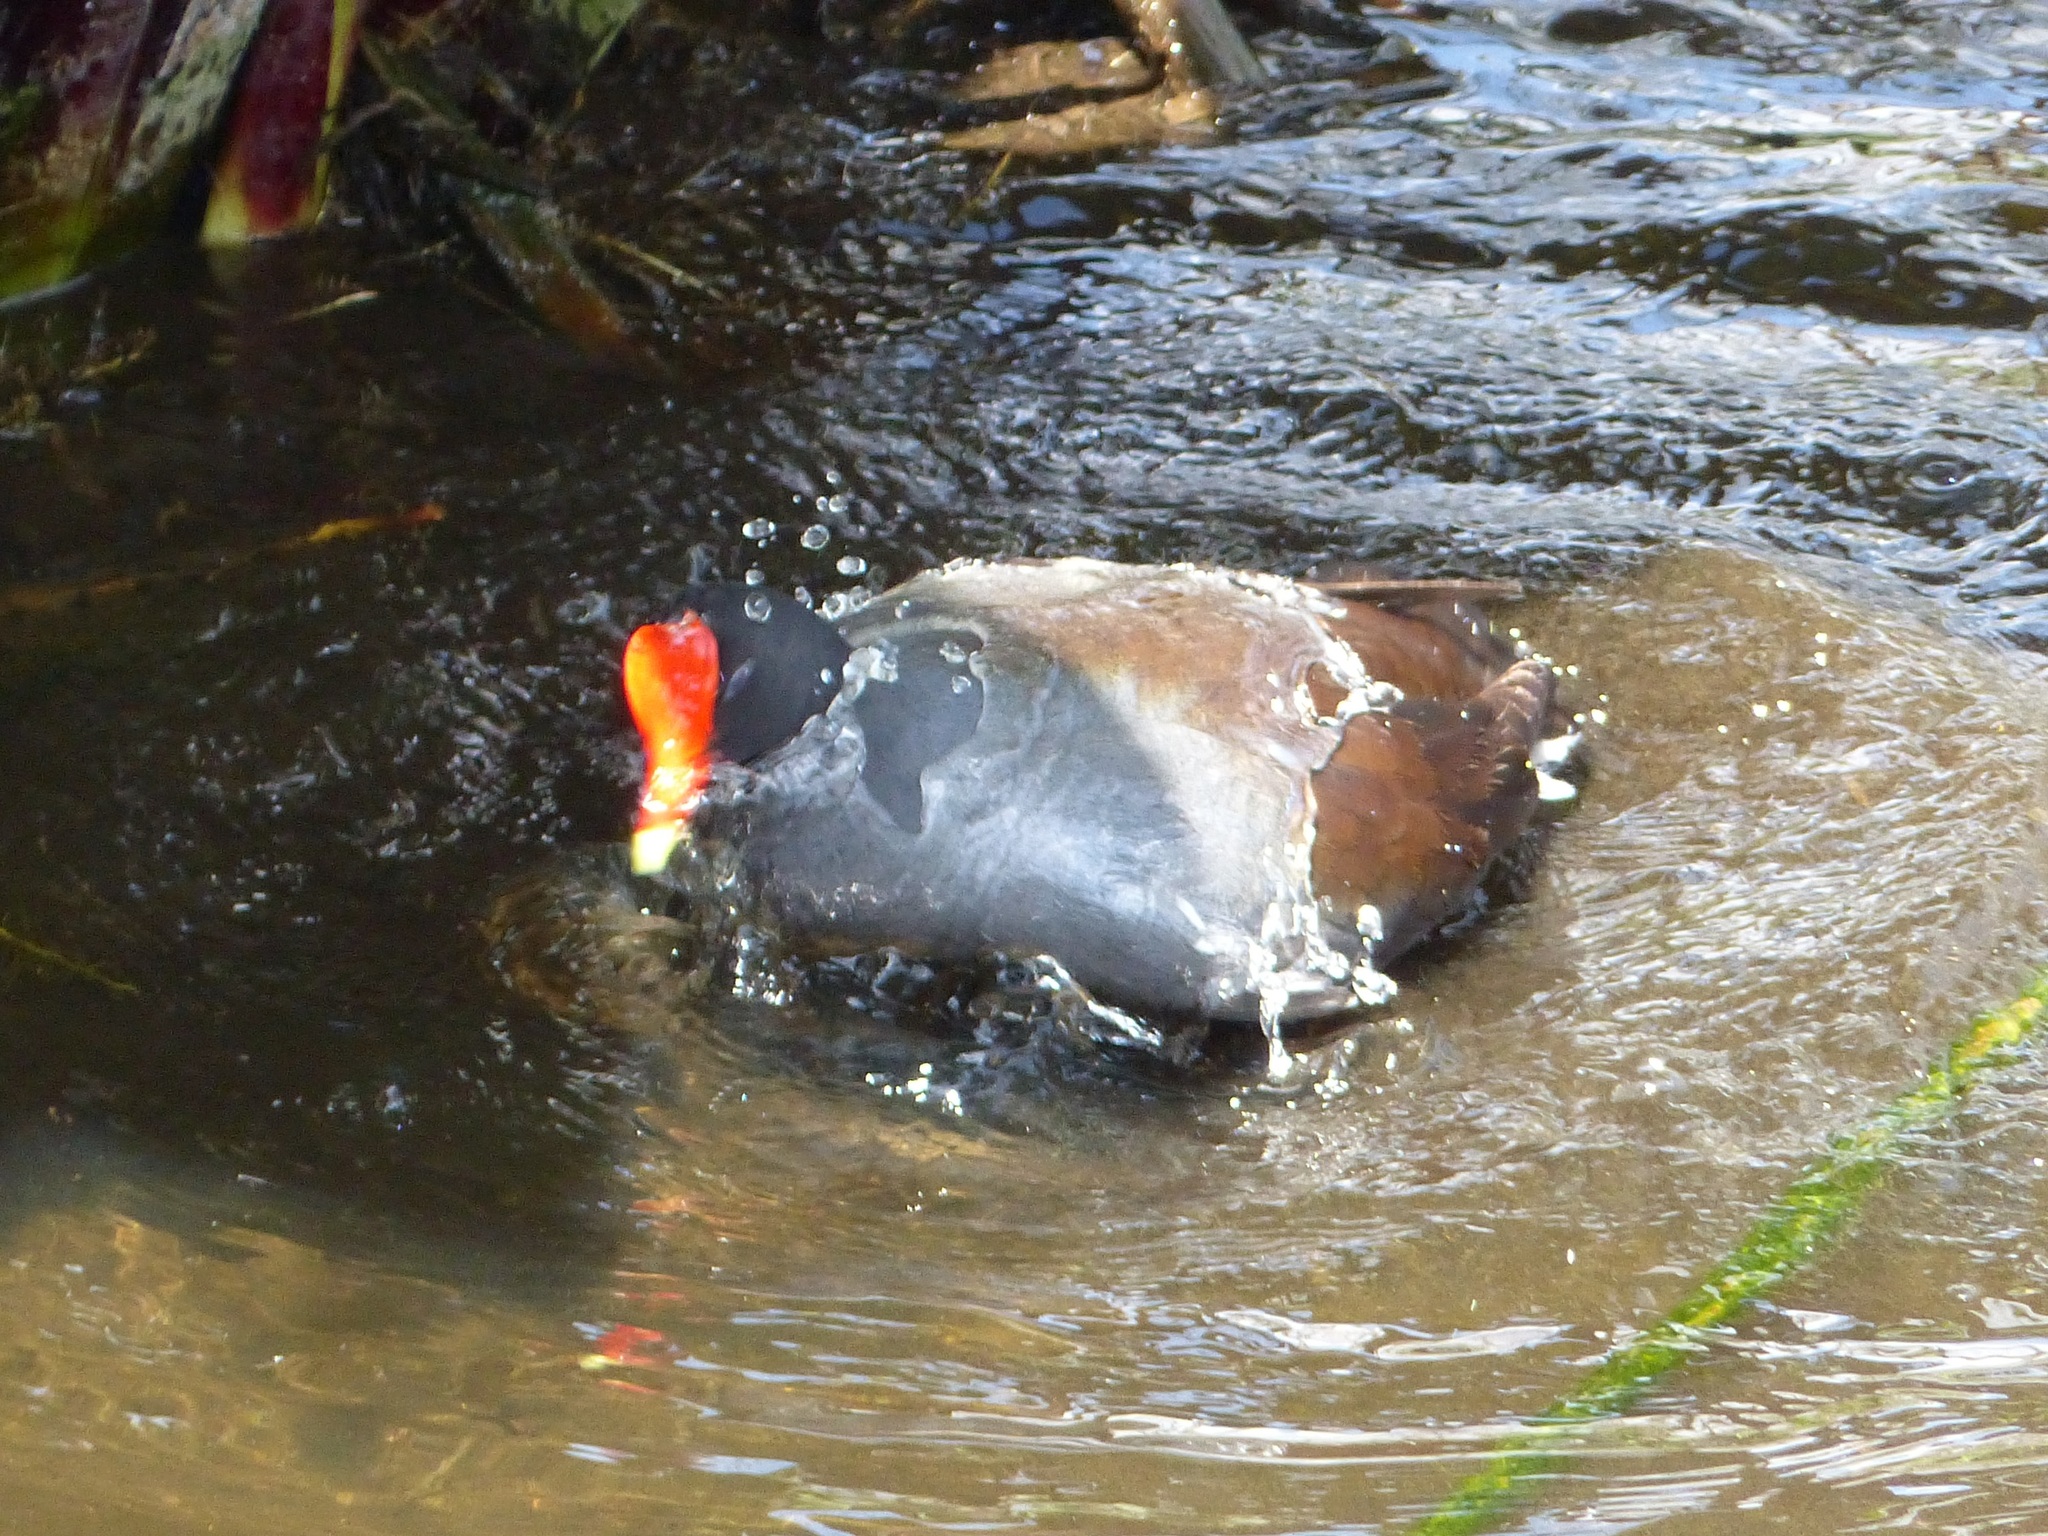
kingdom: Animalia
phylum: Chordata
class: Aves
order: Gruiformes
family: Rallidae
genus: Gallinula
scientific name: Gallinula chloropus
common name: Common moorhen
